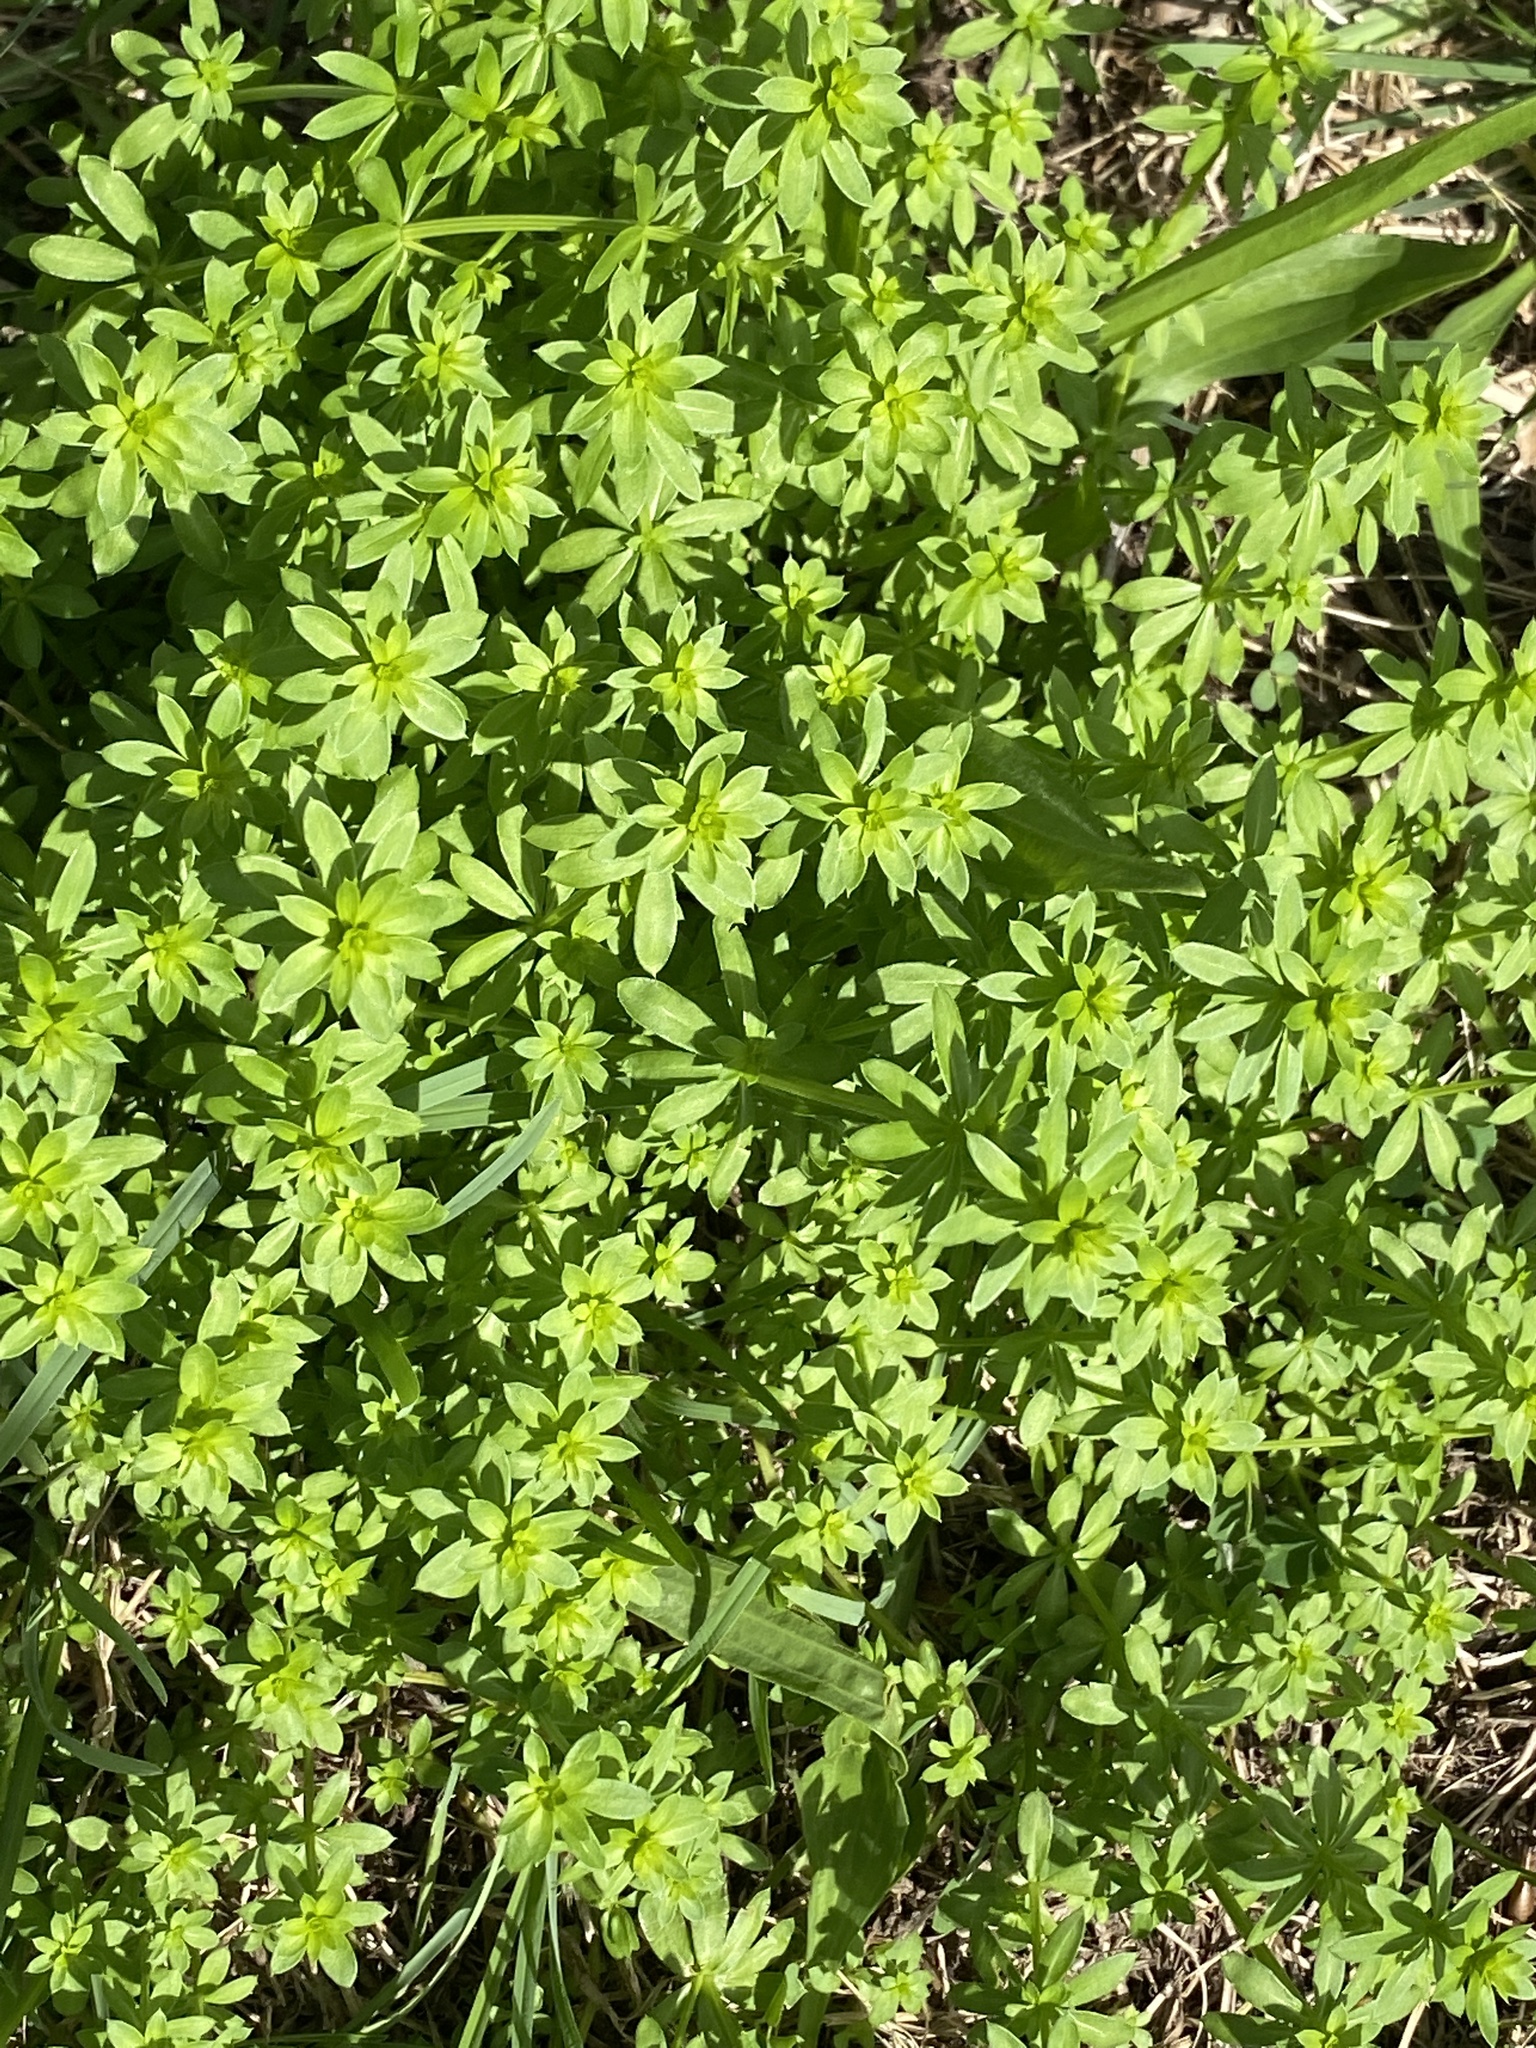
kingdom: Plantae
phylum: Tracheophyta
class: Magnoliopsida
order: Gentianales
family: Rubiaceae
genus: Galium
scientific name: Galium mollugo
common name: Hedge bedstraw
